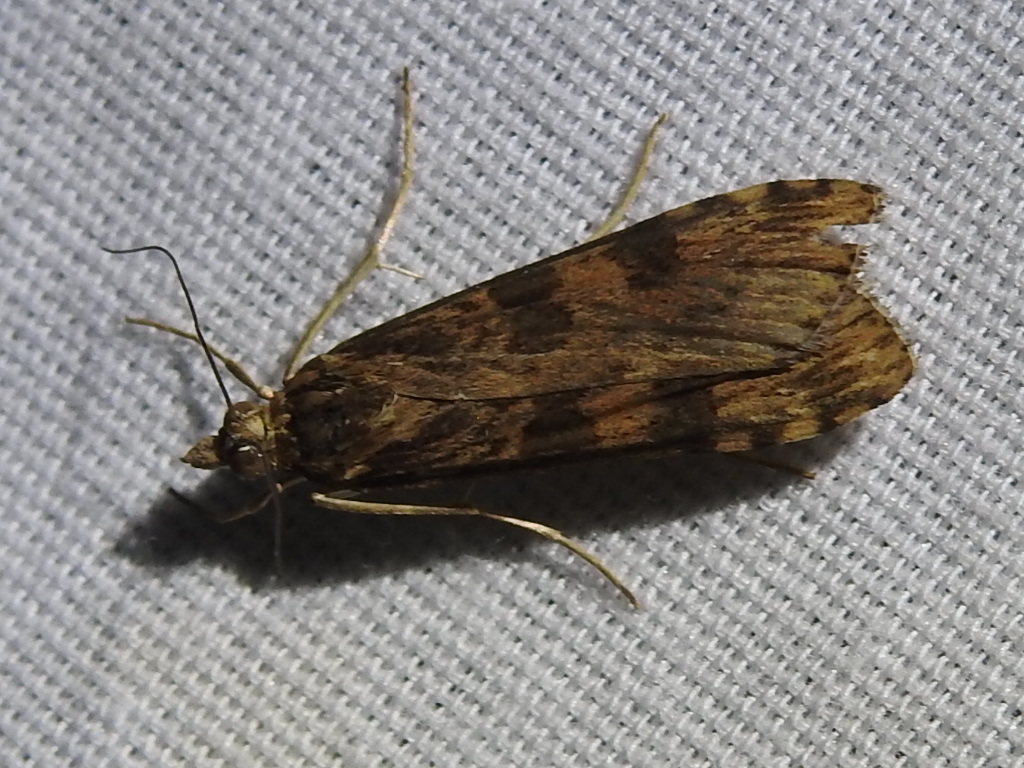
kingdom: Animalia
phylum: Arthropoda
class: Insecta
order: Lepidoptera
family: Crambidae
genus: Nomophila
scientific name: Nomophila nearctica
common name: American rush veneer
